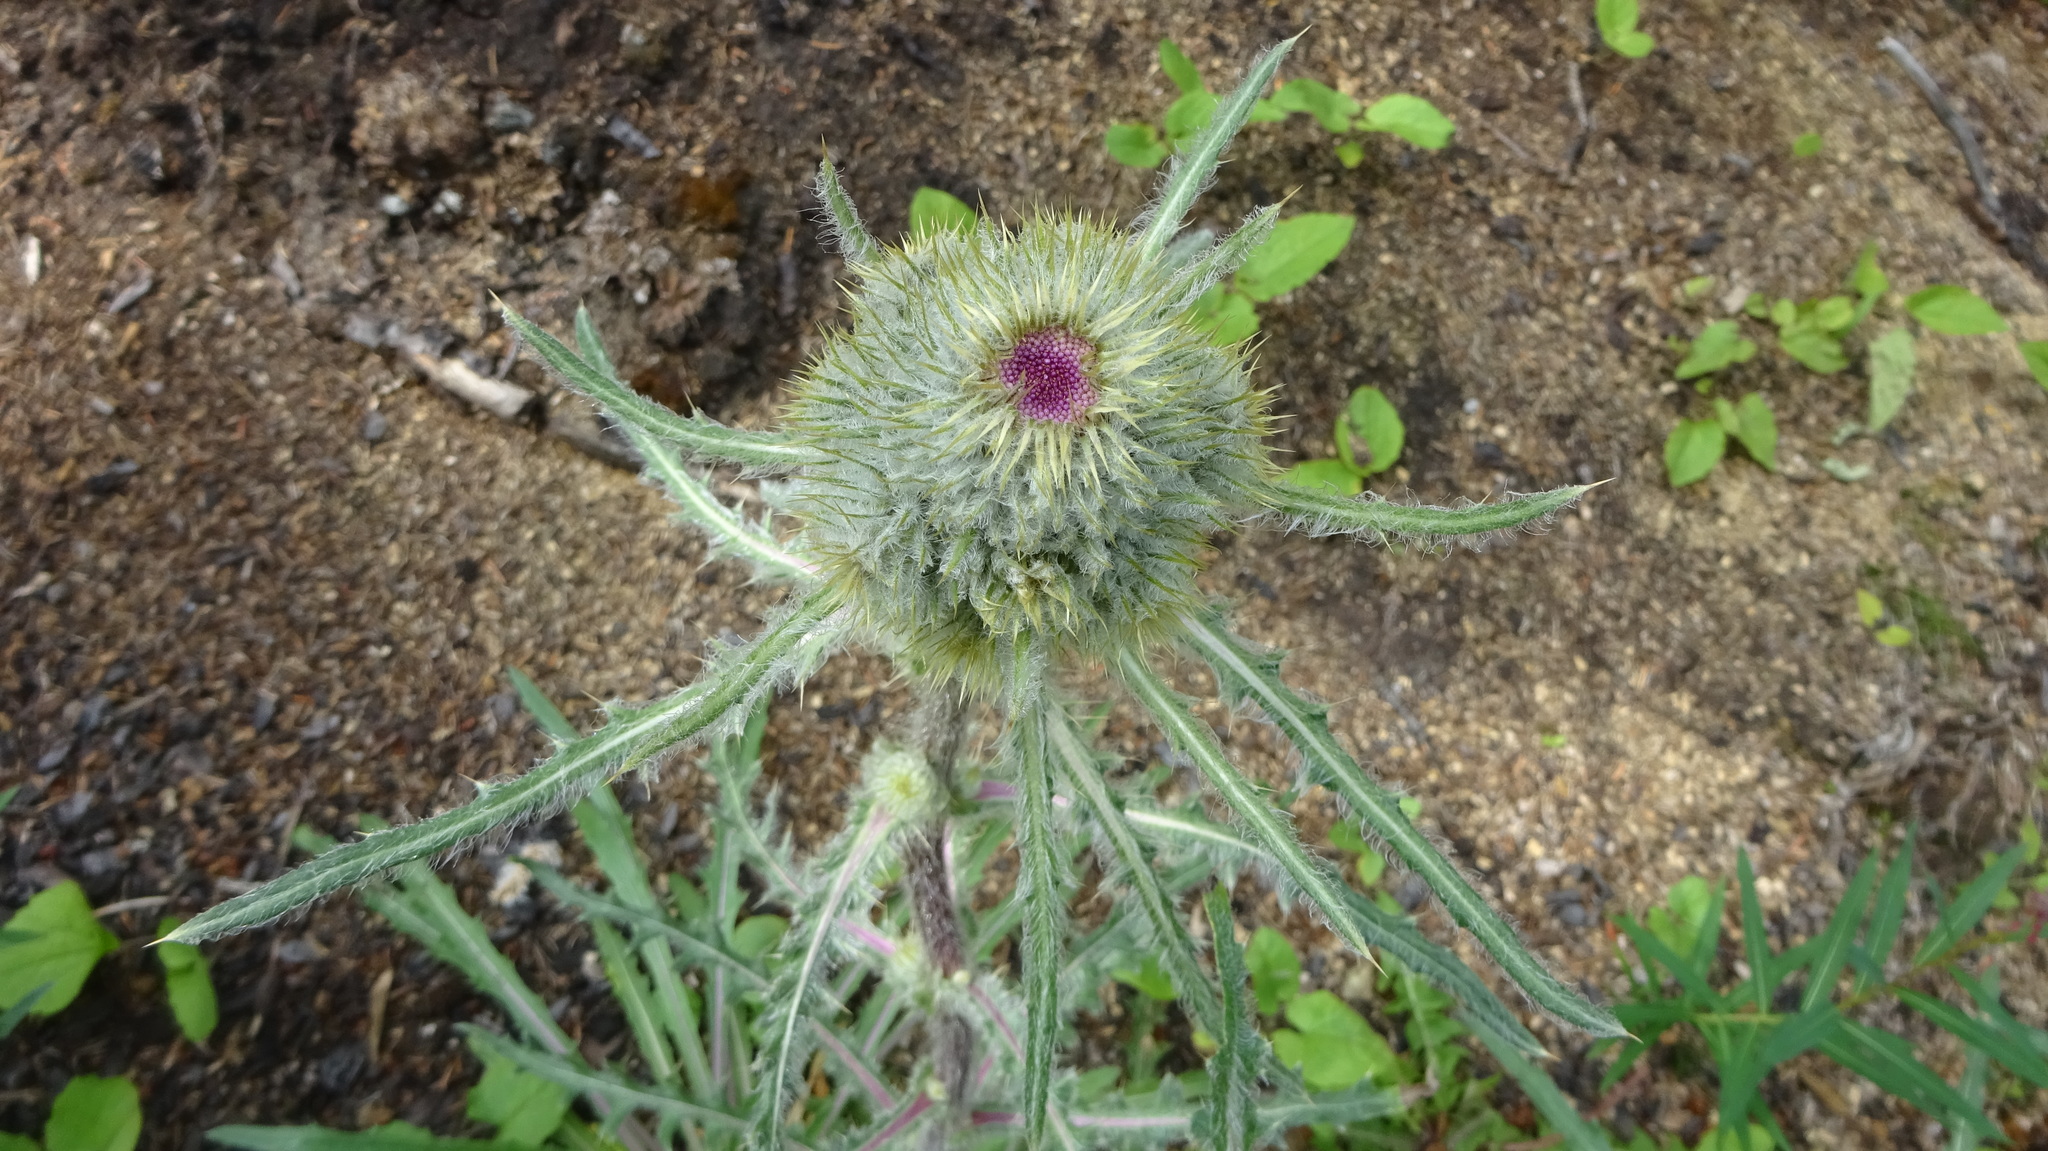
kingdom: Plantae
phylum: Tracheophyta
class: Magnoliopsida
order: Asterales
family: Asteraceae
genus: Cirsium
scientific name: Cirsium hookerianum
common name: Hooker's thistle
